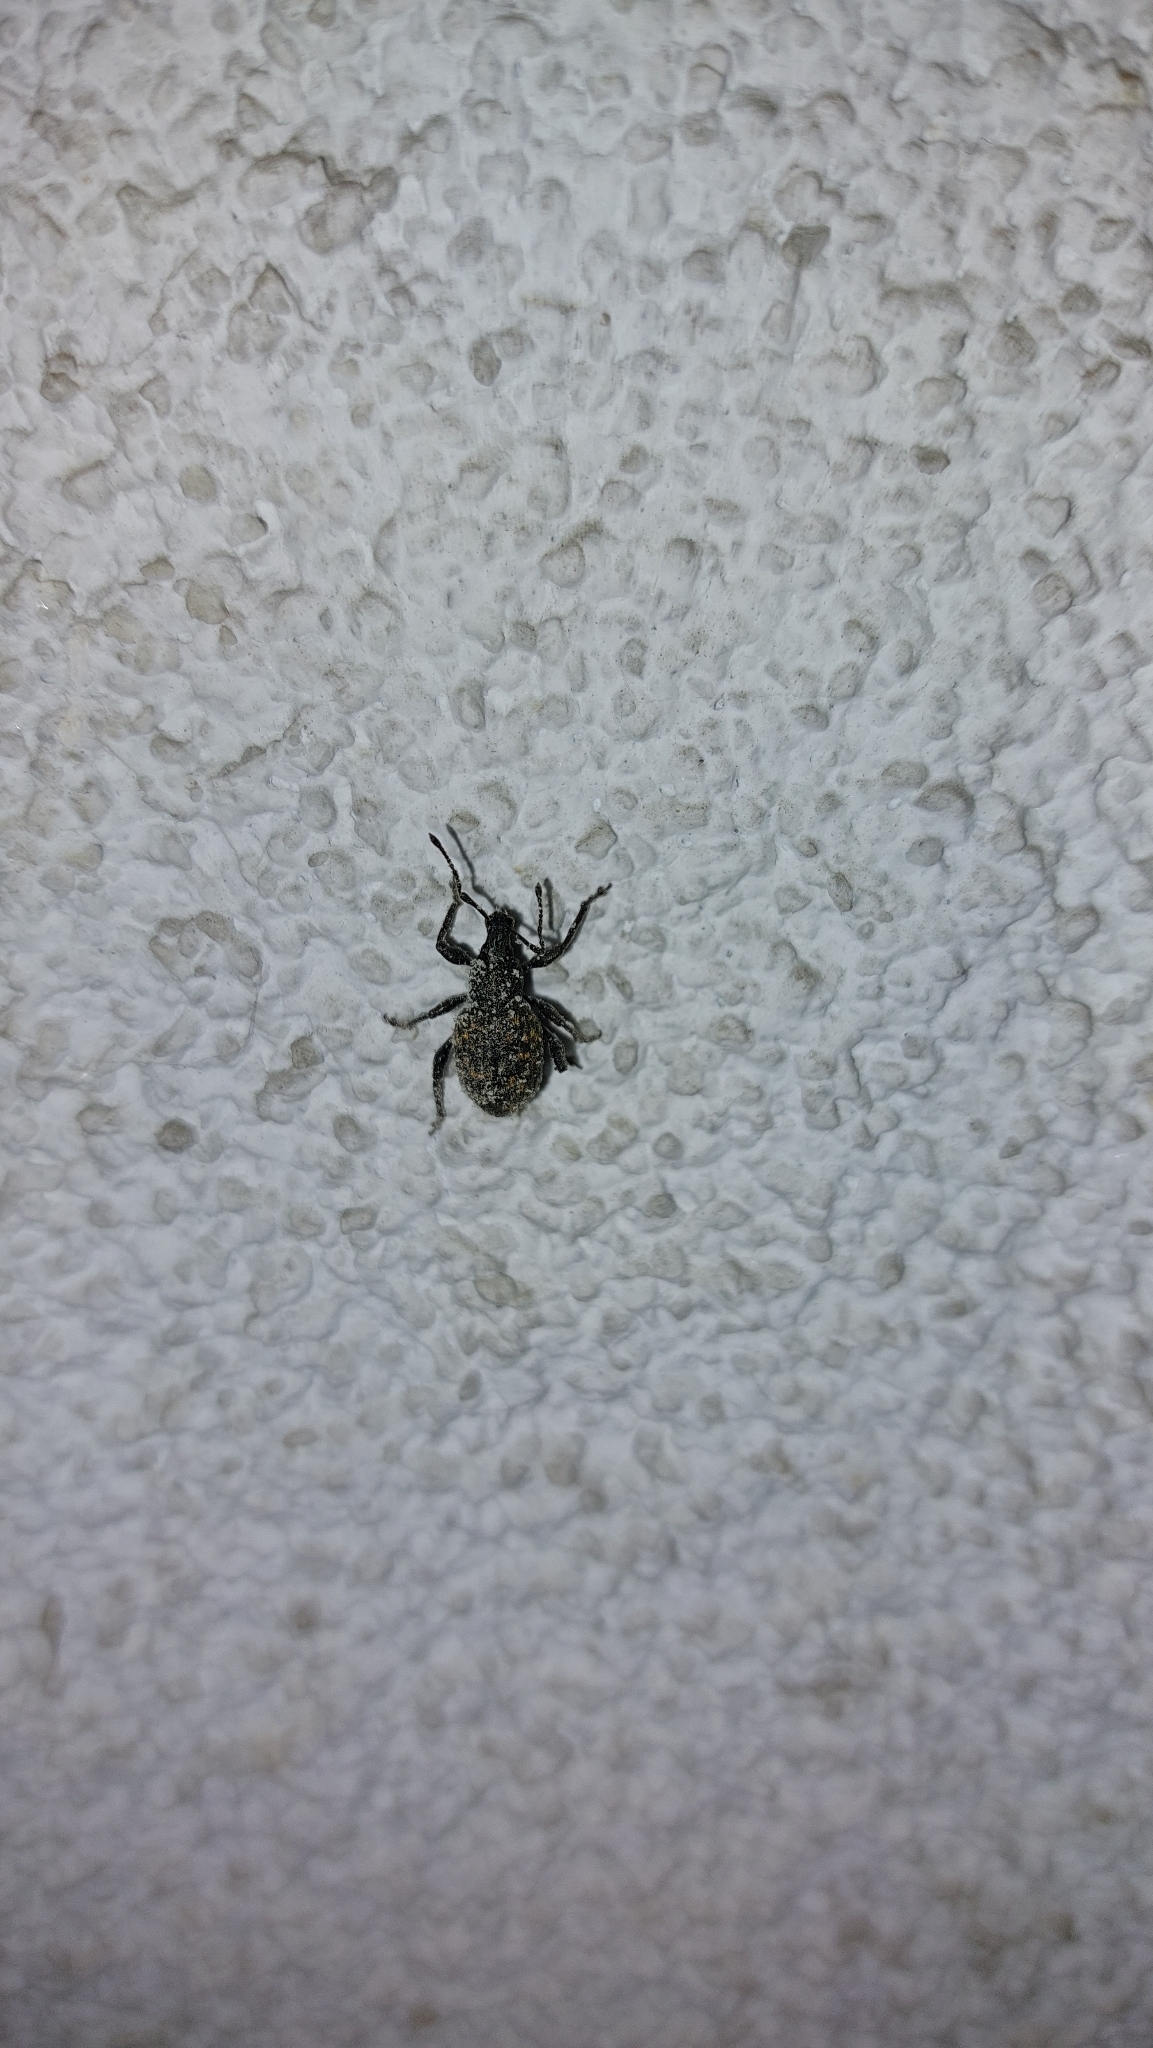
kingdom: Animalia
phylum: Arthropoda
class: Insecta
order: Coleoptera
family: Curculionidae
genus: Otiorhynchus
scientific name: Otiorhynchus sulcatus
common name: Black vine weevil
